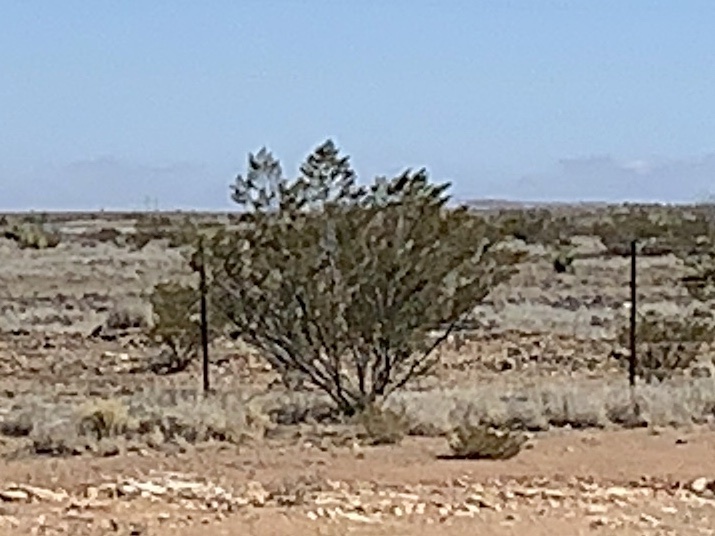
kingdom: Plantae
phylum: Tracheophyta
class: Magnoliopsida
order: Zygophyllales
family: Zygophyllaceae
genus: Larrea
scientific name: Larrea tridentata
